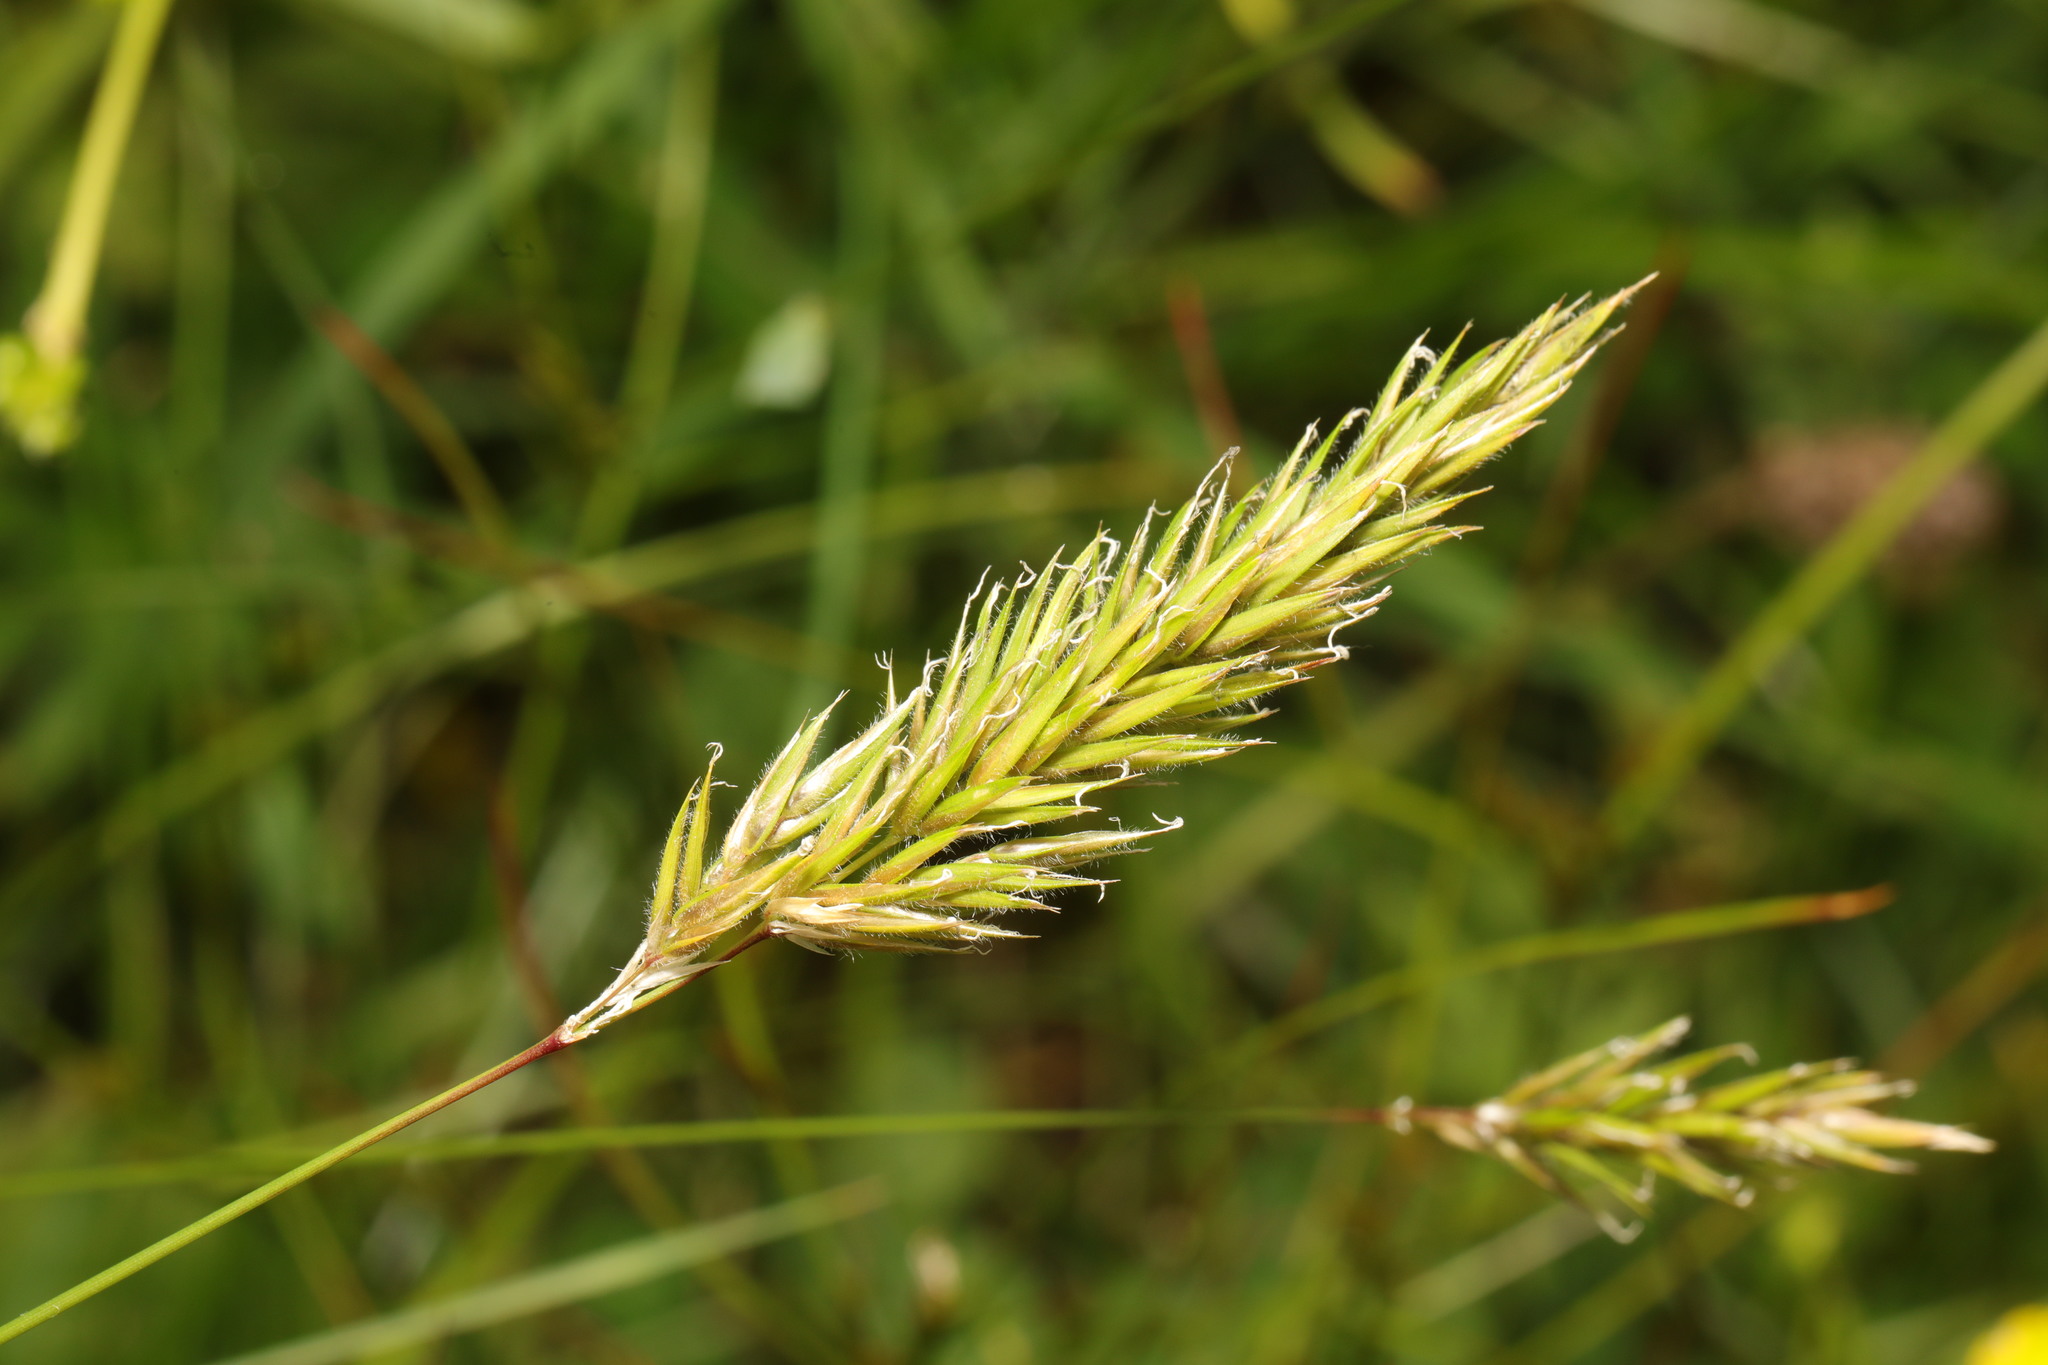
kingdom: Plantae
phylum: Tracheophyta
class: Liliopsida
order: Poales
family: Poaceae
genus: Anthoxanthum
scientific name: Anthoxanthum odoratum
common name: Sweet vernalgrass
